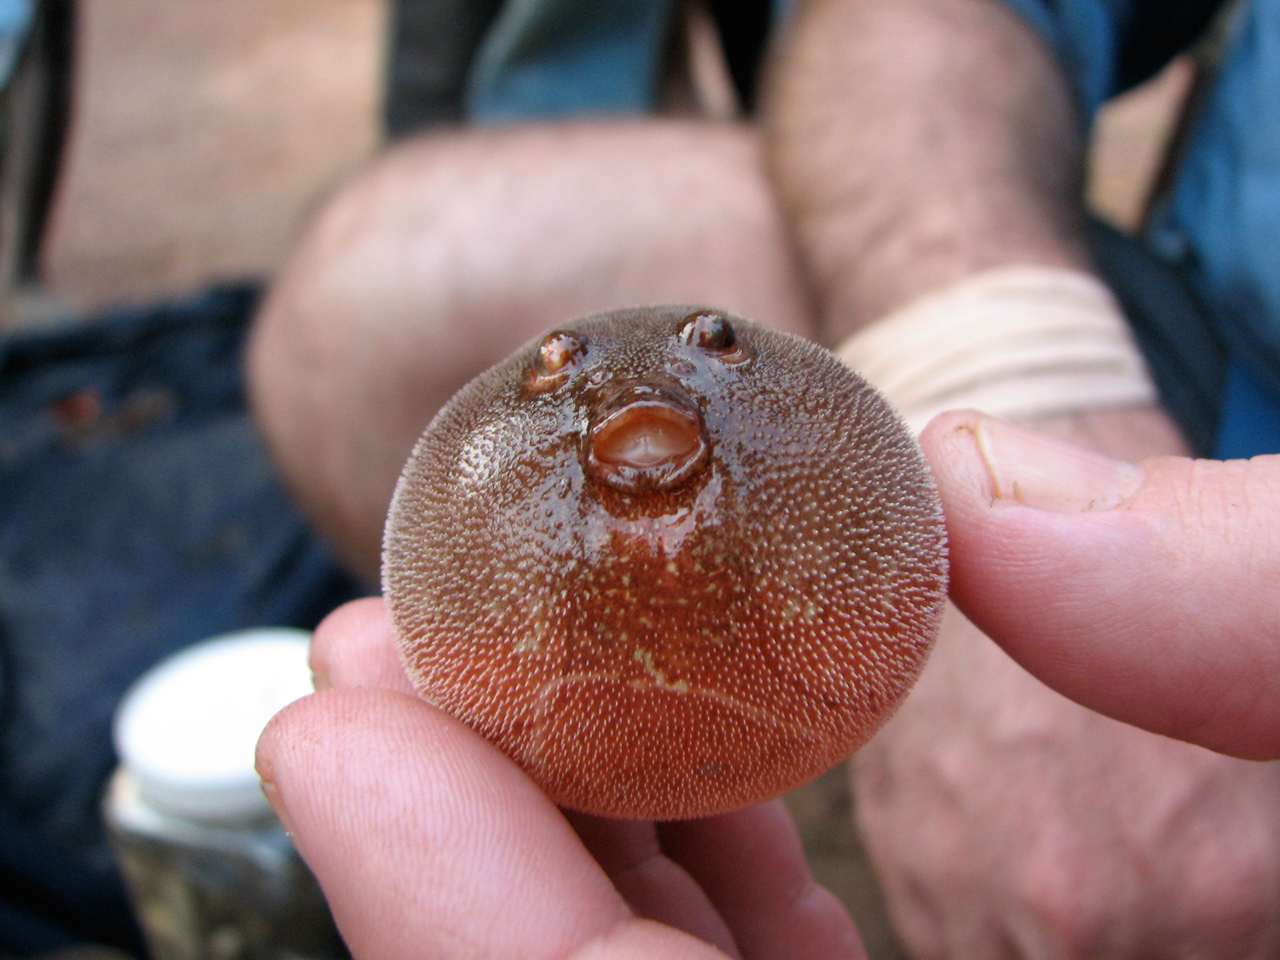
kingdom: Animalia
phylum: Chordata
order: Tetraodontiformes
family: Tetraodontidae
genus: Tetraodon
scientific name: Tetraodon miurus
